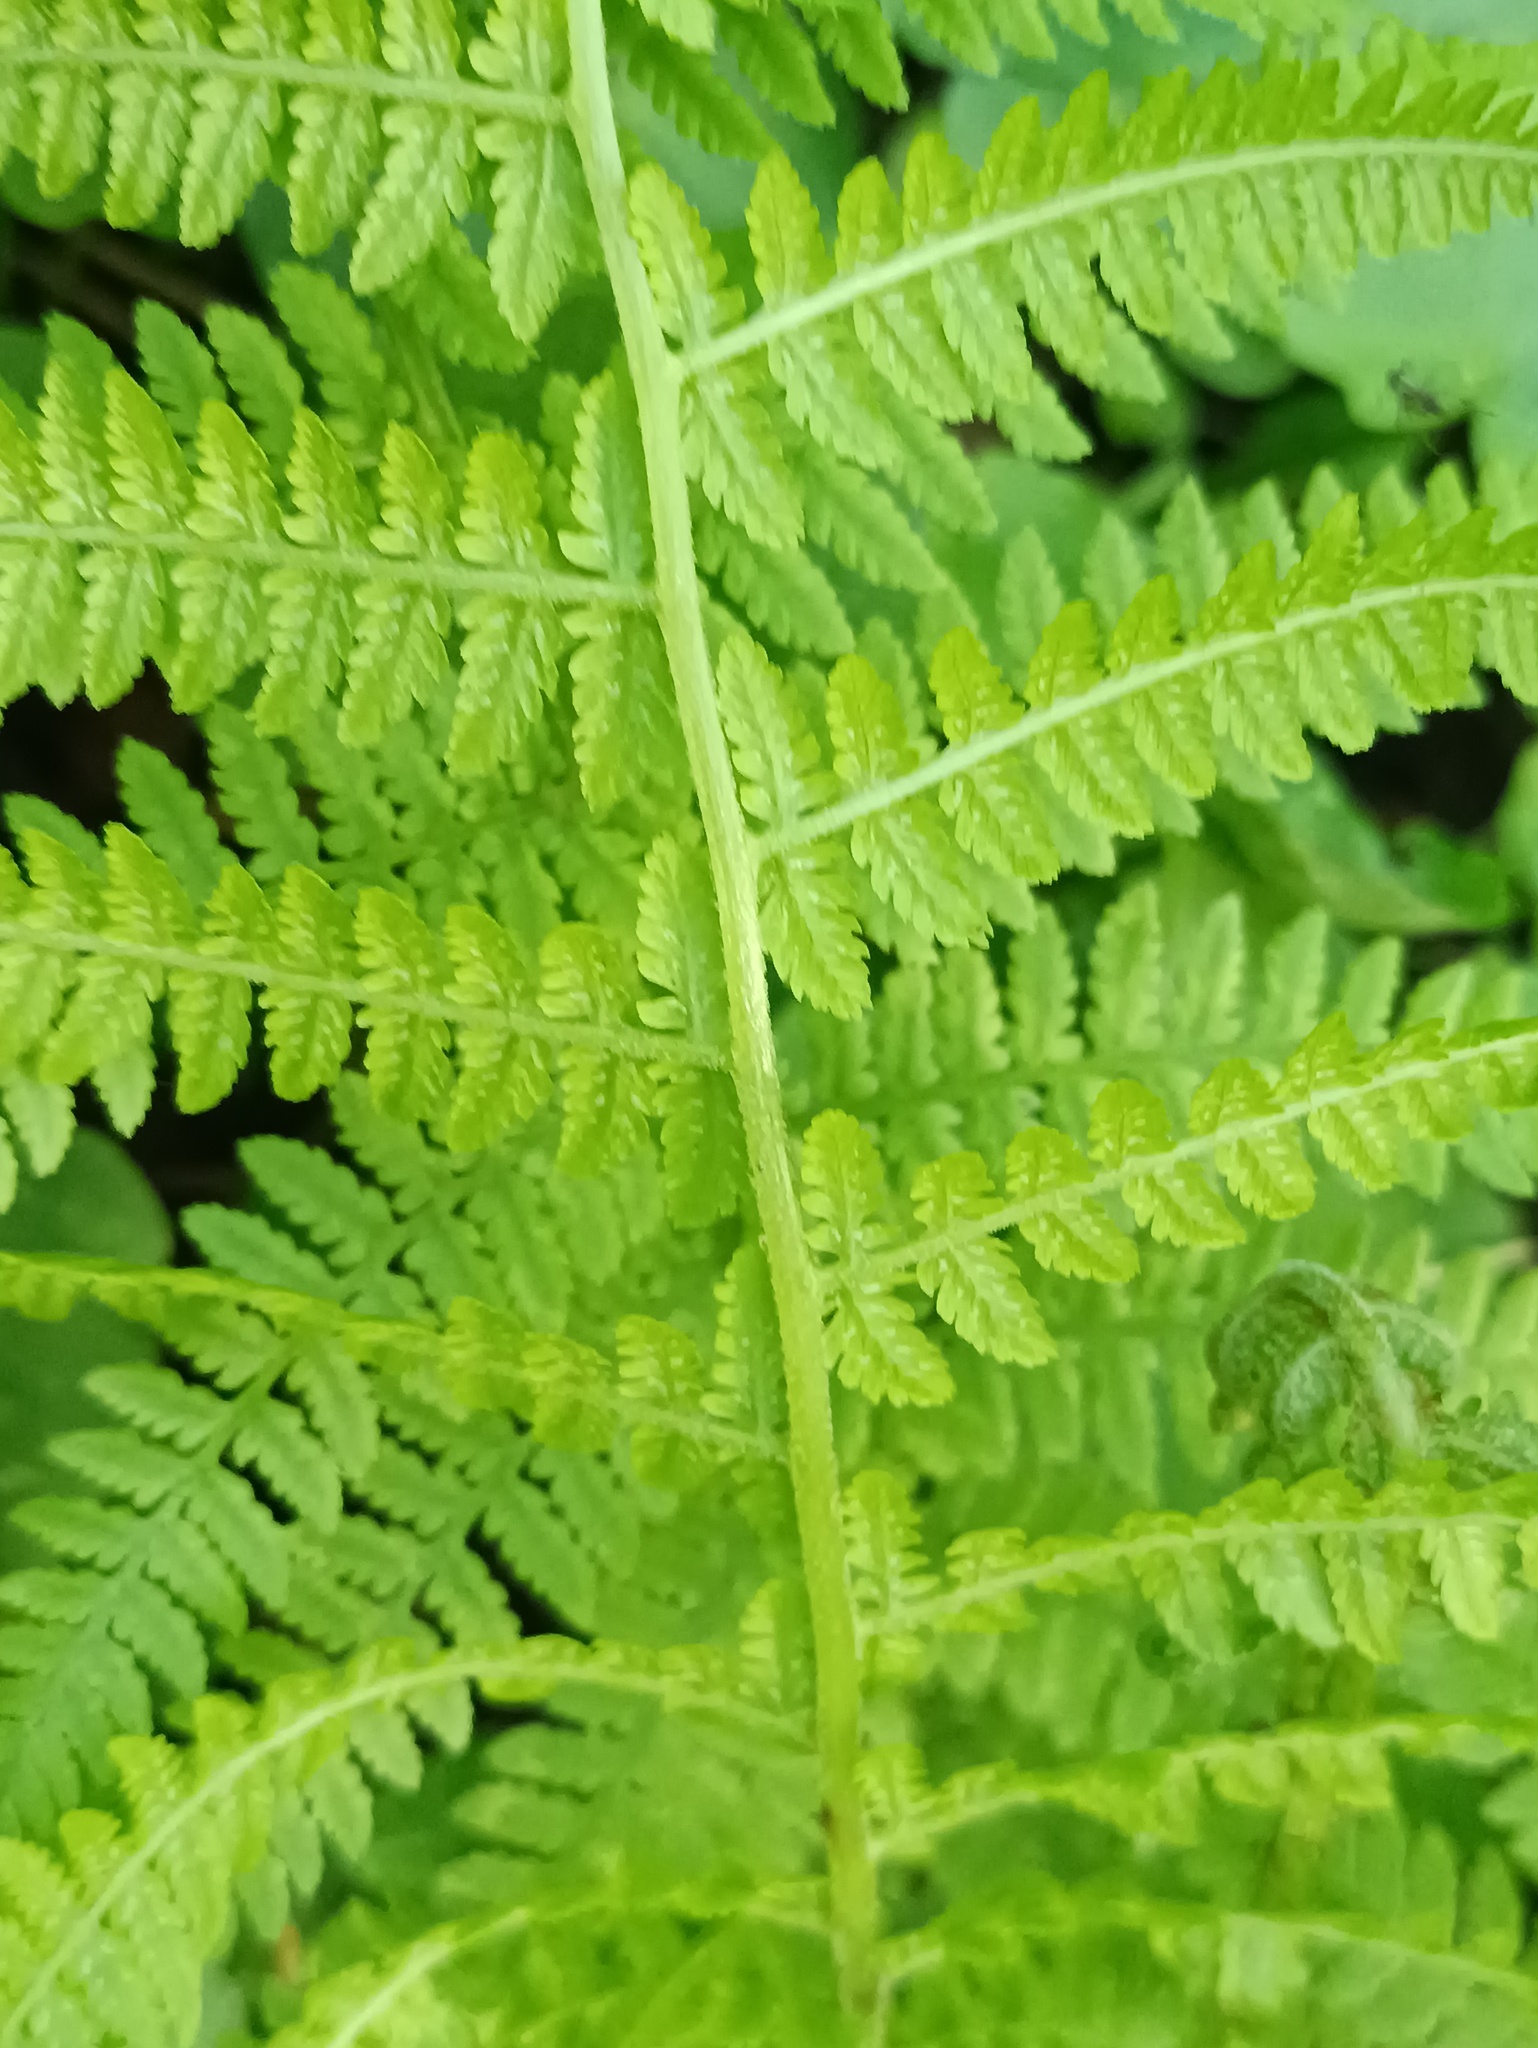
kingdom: Plantae
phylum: Tracheophyta
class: Polypodiopsida
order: Polypodiales
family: Athyriaceae
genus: Athyrium
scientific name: Athyrium filix-femina
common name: Lady fern
